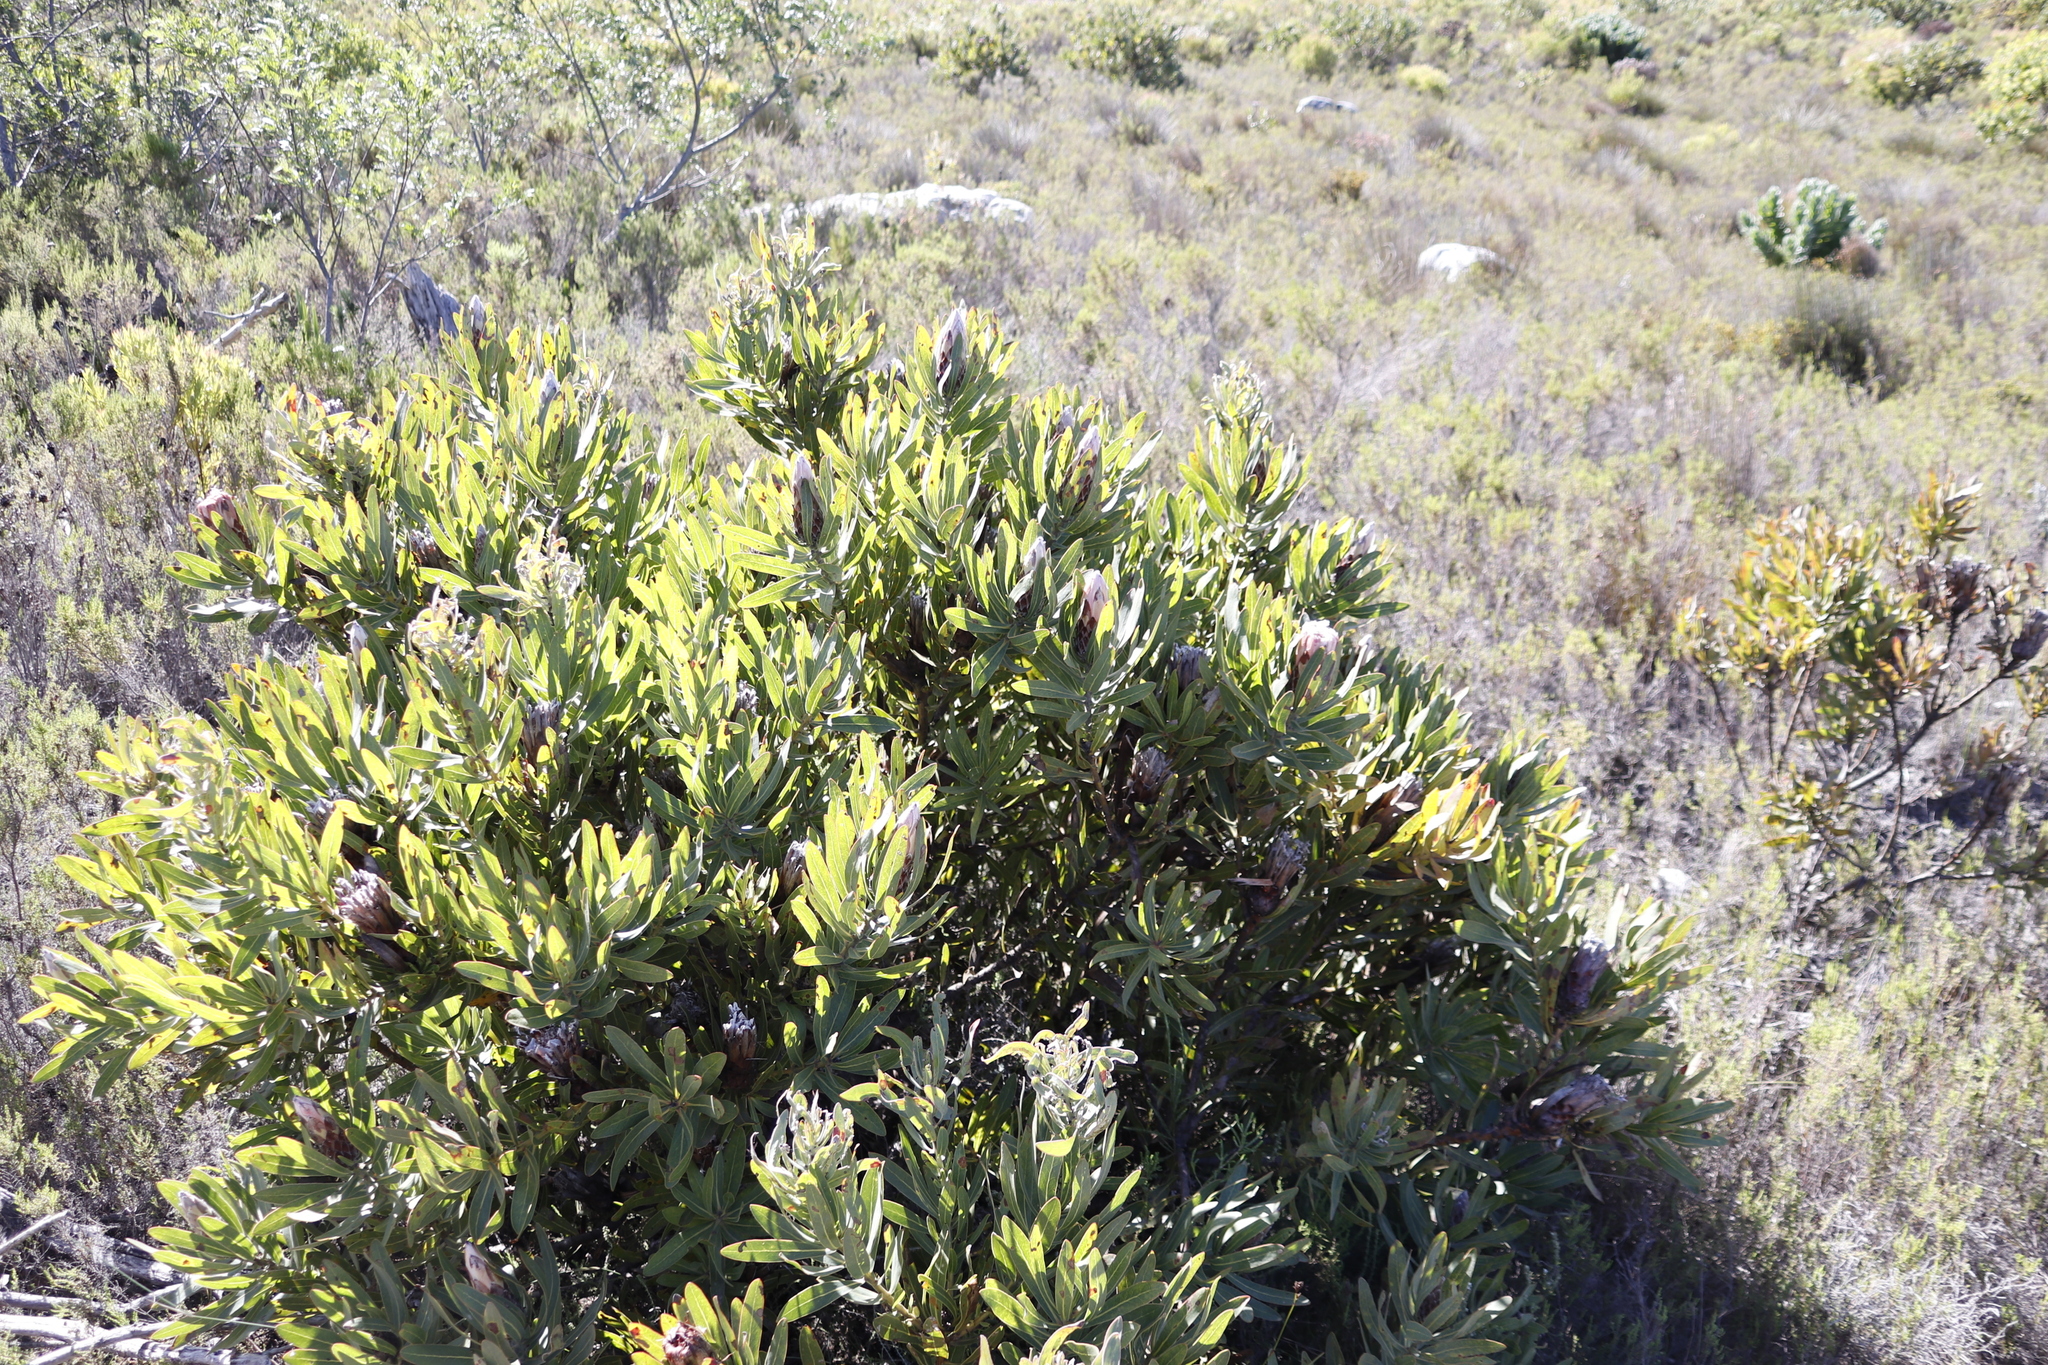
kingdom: Plantae
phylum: Tracheophyta
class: Magnoliopsida
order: Proteales
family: Proteaceae
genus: Protea
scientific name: Protea
